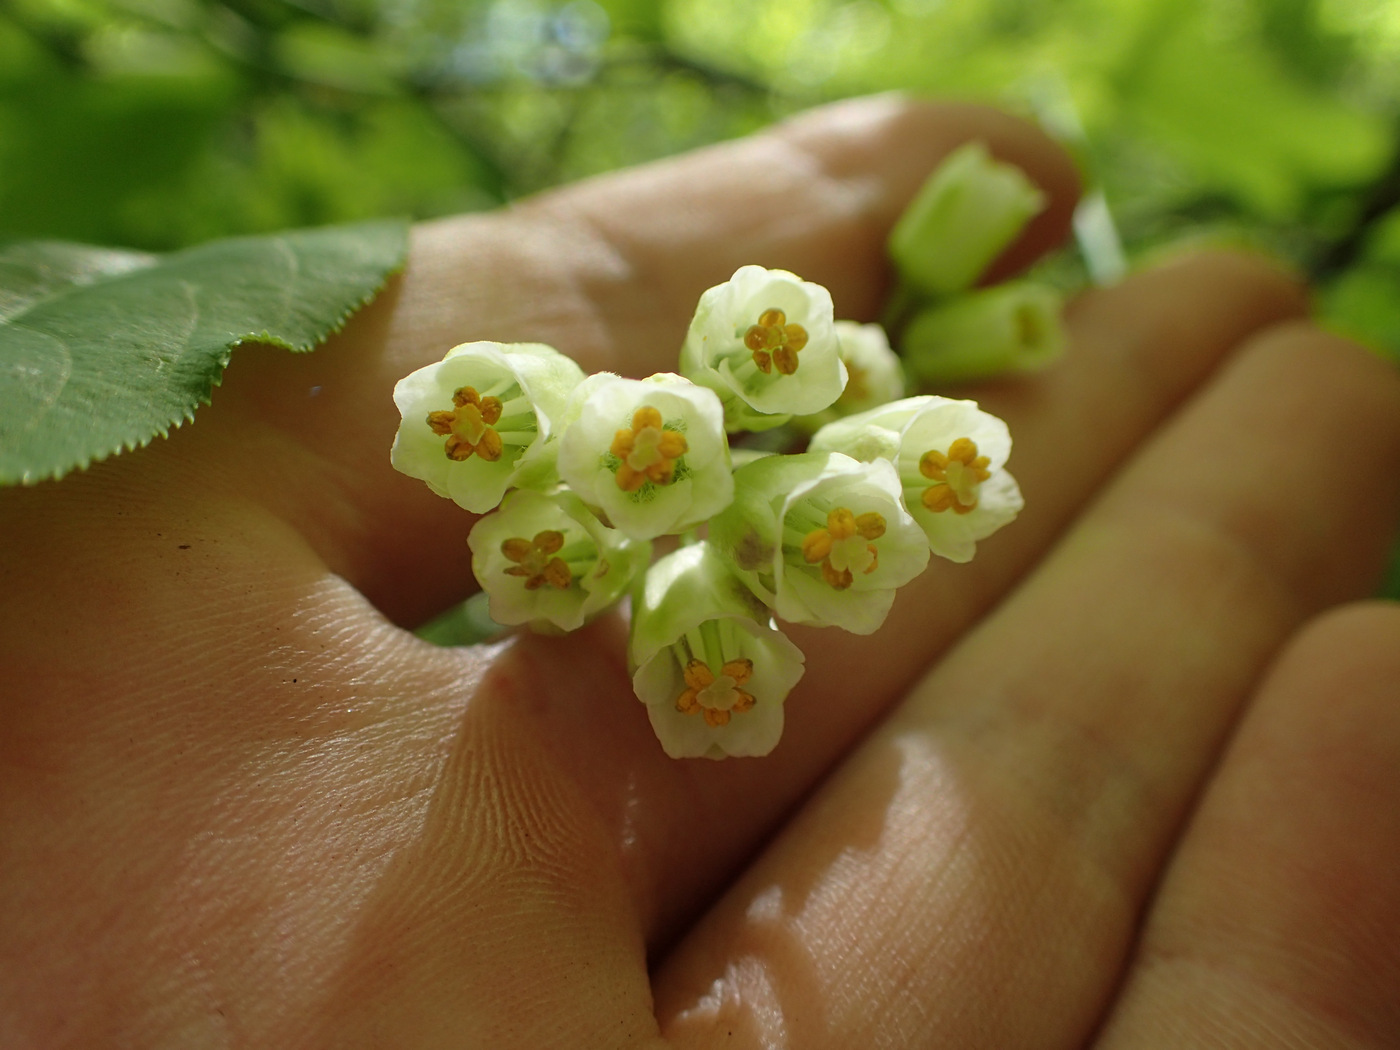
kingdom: Plantae
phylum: Tracheophyta
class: Magnoliopsida
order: Crossosomatales
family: Staphyleaceae
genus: Staphylea
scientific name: Staphylea trifolia
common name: American bladdernut
